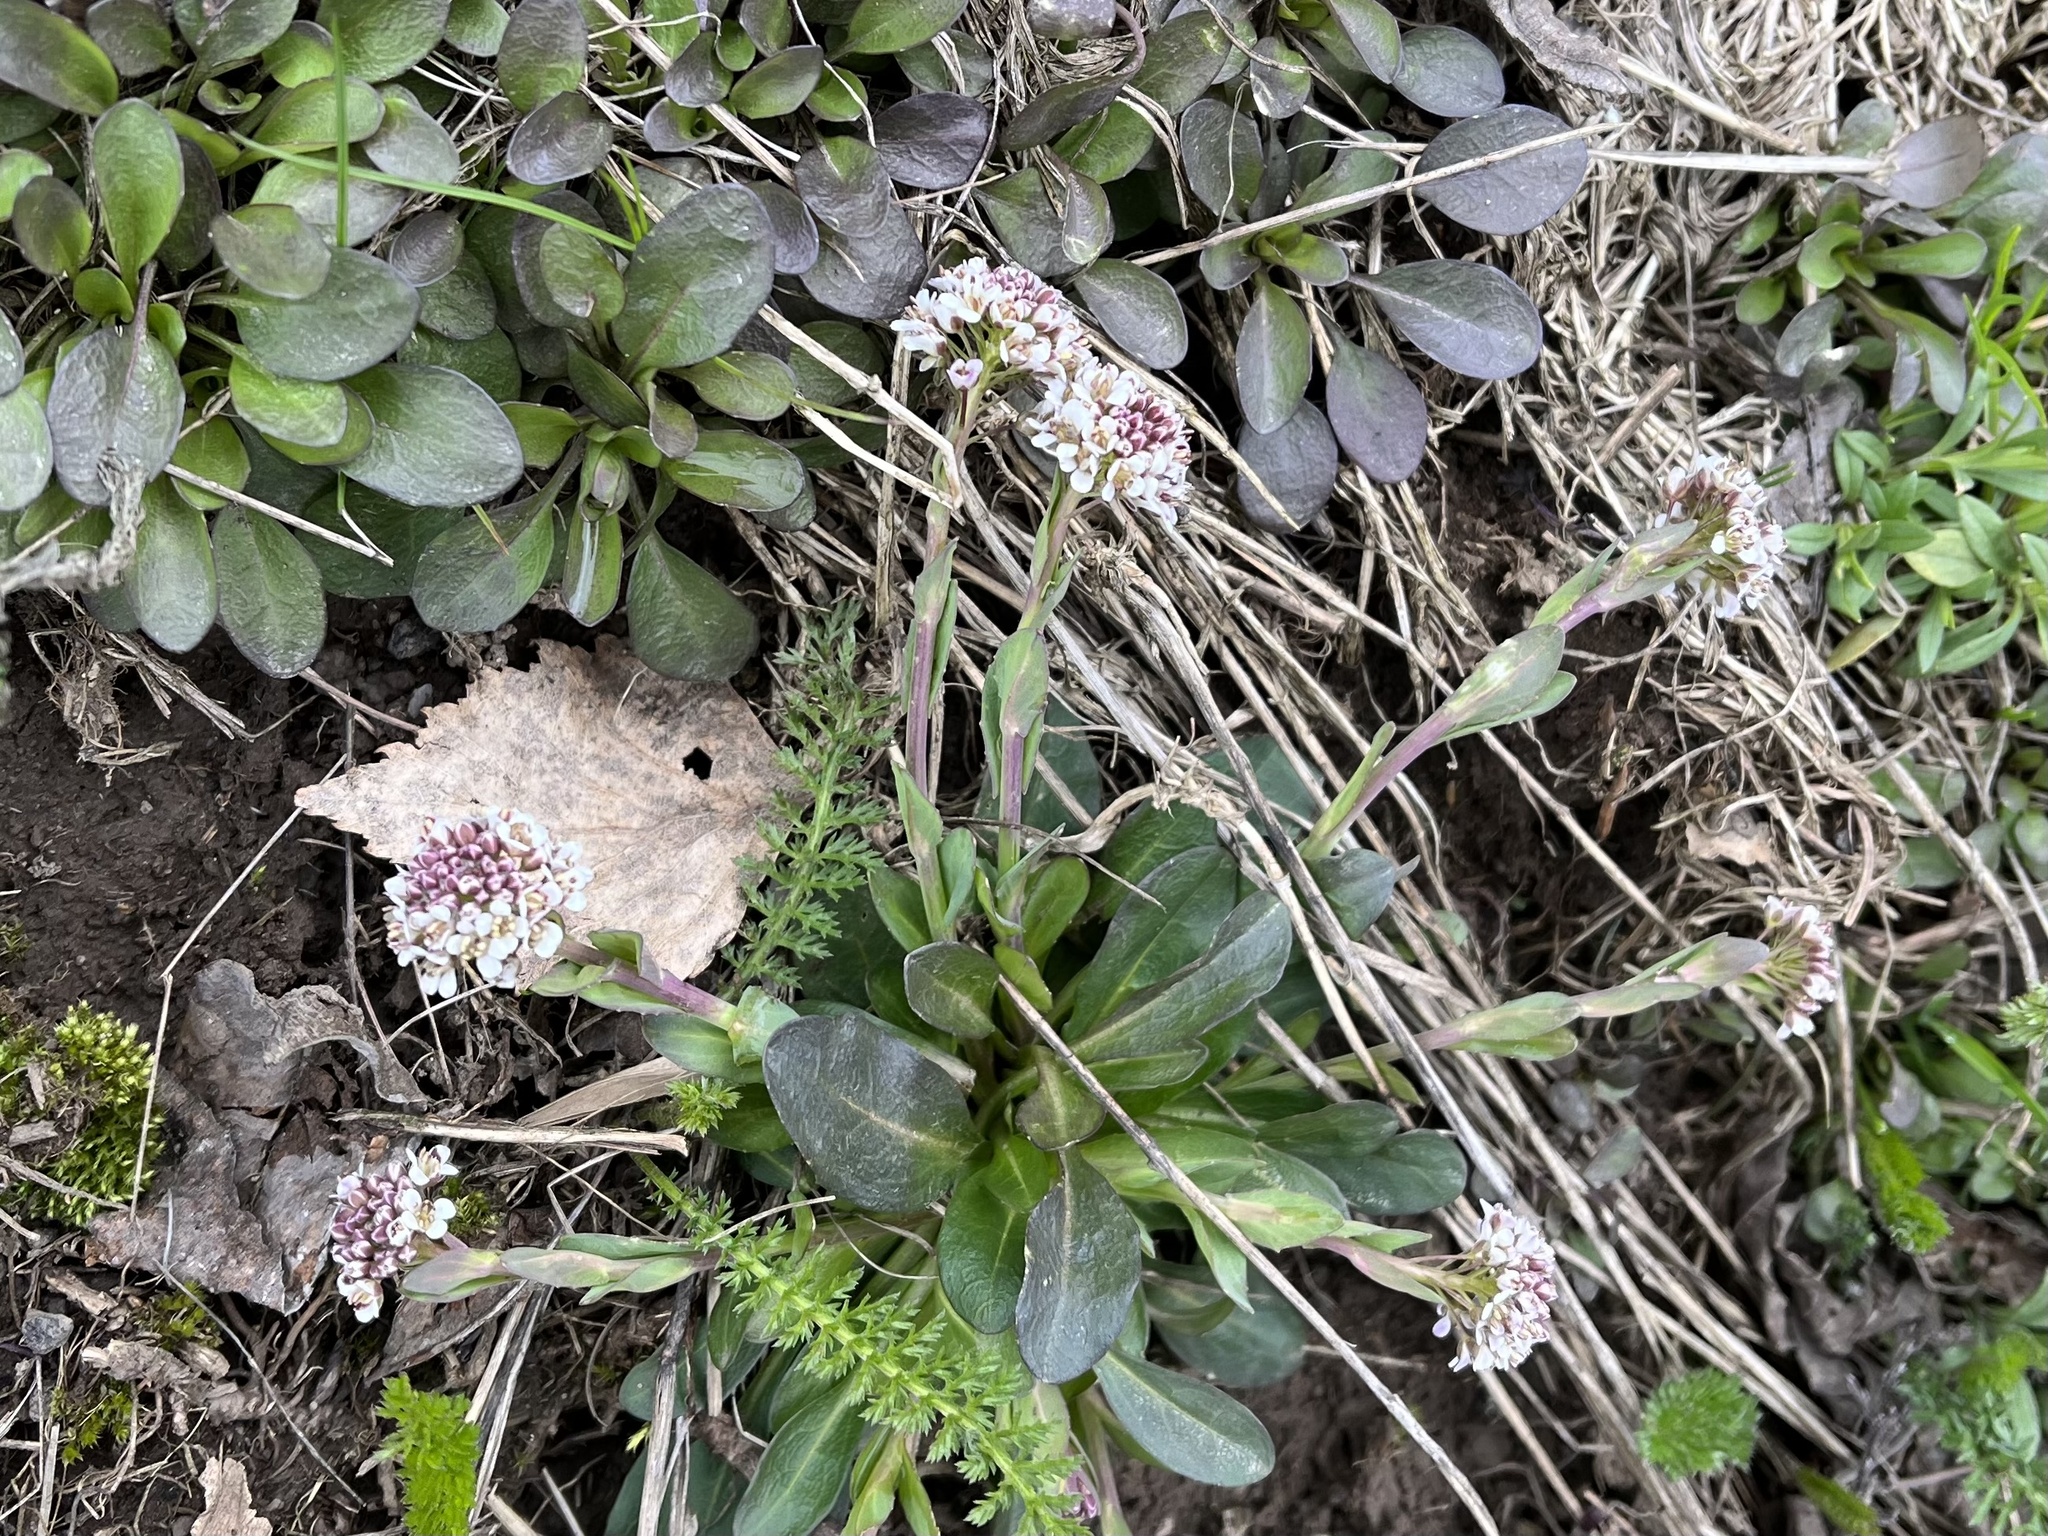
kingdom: Plantae
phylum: Tracheophyta
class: Magnoliopsida
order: Brassicales
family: Brassicaceae
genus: Noccaea
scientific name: Noccaea caerulescens
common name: Alpine pennycress
